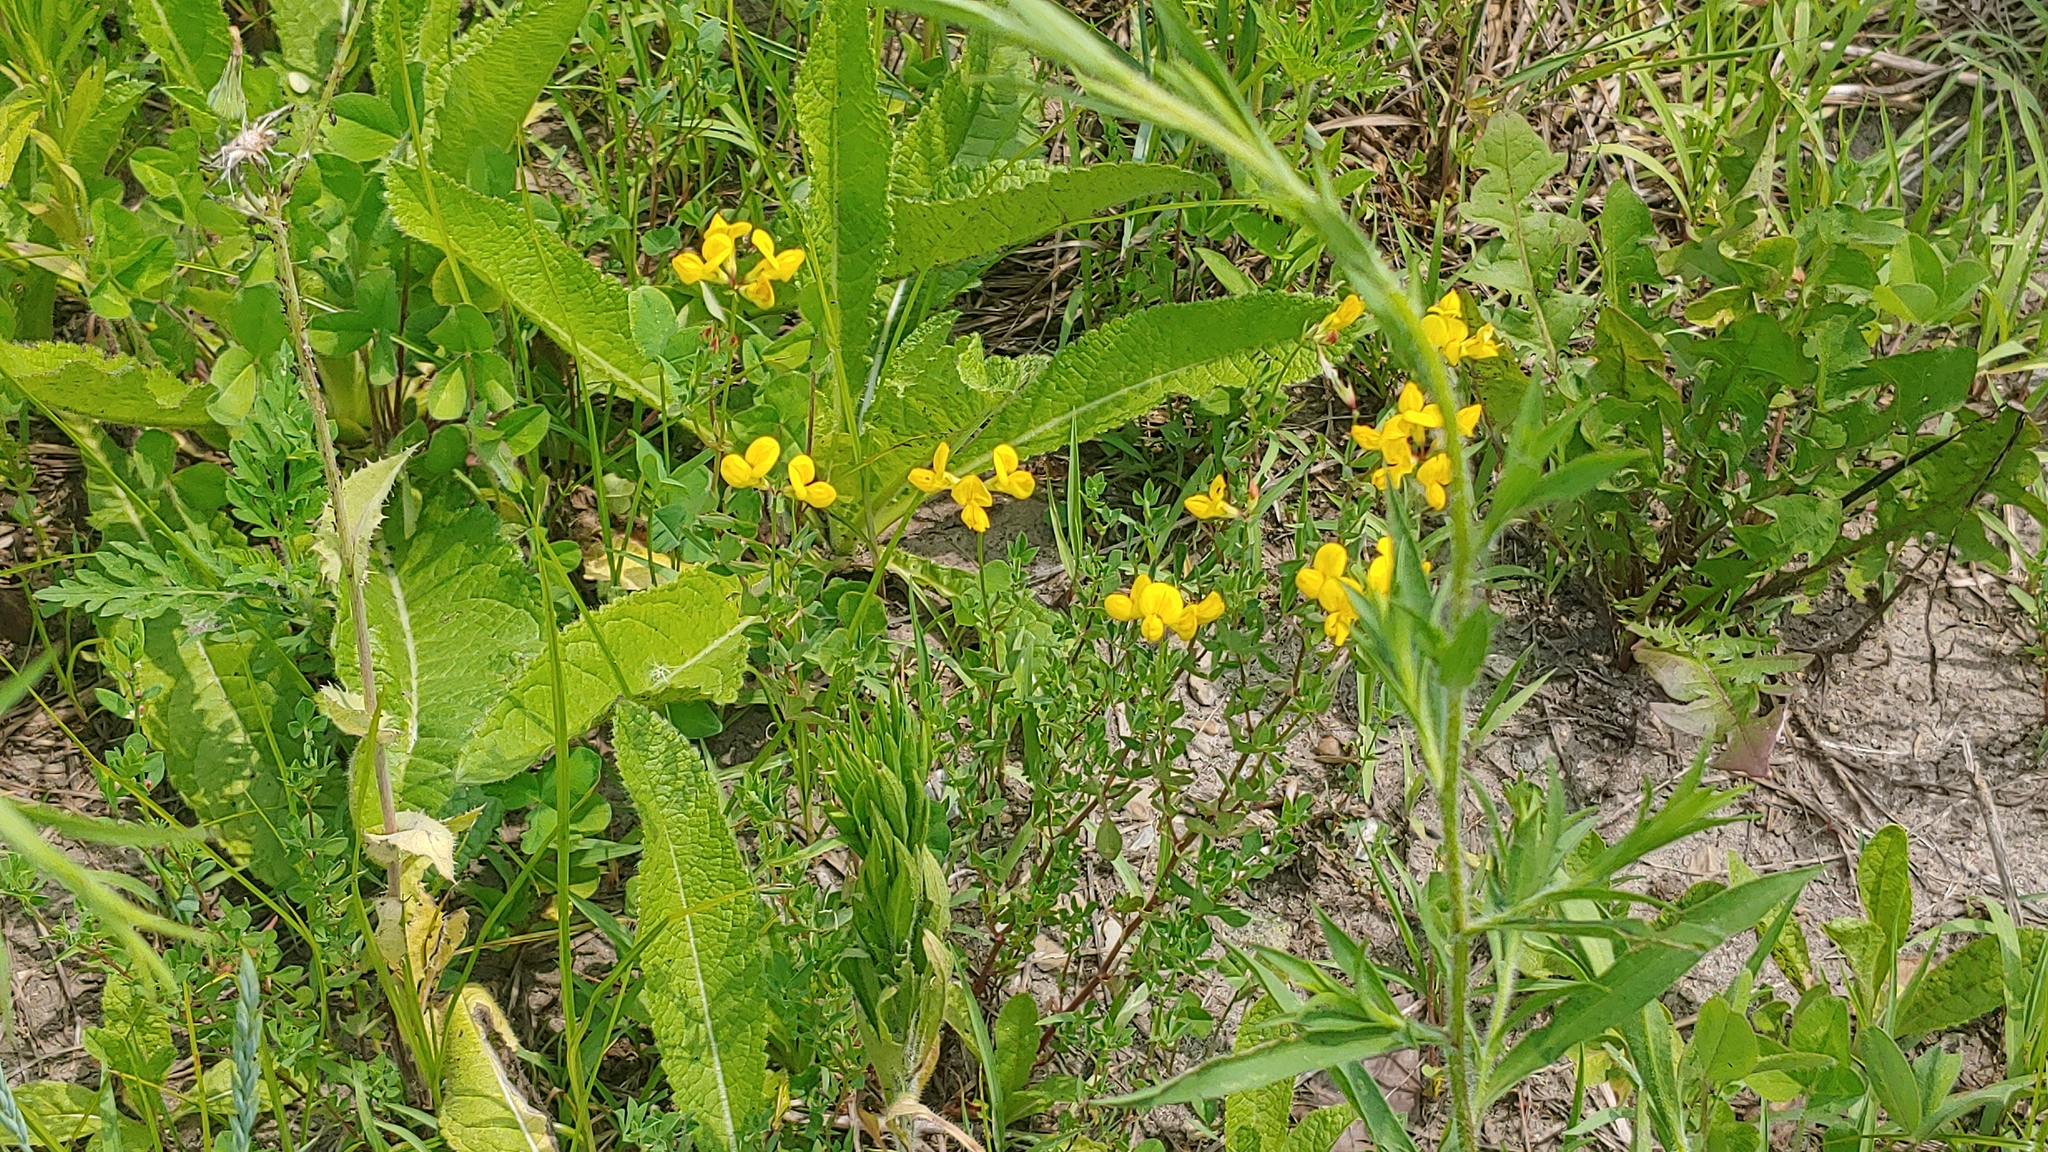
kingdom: Plantae
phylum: Tracheophyta
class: Magnoliopsida
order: Fabales
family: Fabaceae
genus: Lotus
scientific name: Lotus corniculatus
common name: Common bird's-foot-trefoil
